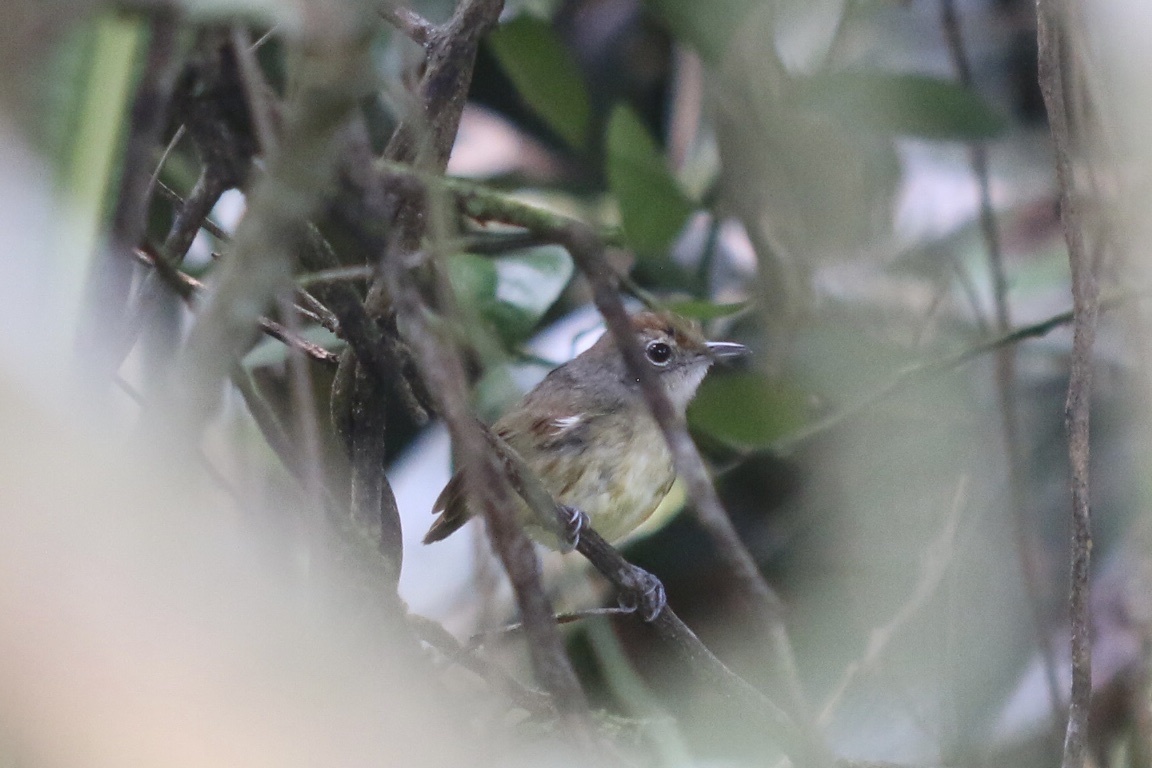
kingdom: Animalia
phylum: Chordata
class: Aves
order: Passeriformes
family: Thamnophilidae
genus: Dysithamnus
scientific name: Dysithamnus mentalis
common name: Plain antvireo
